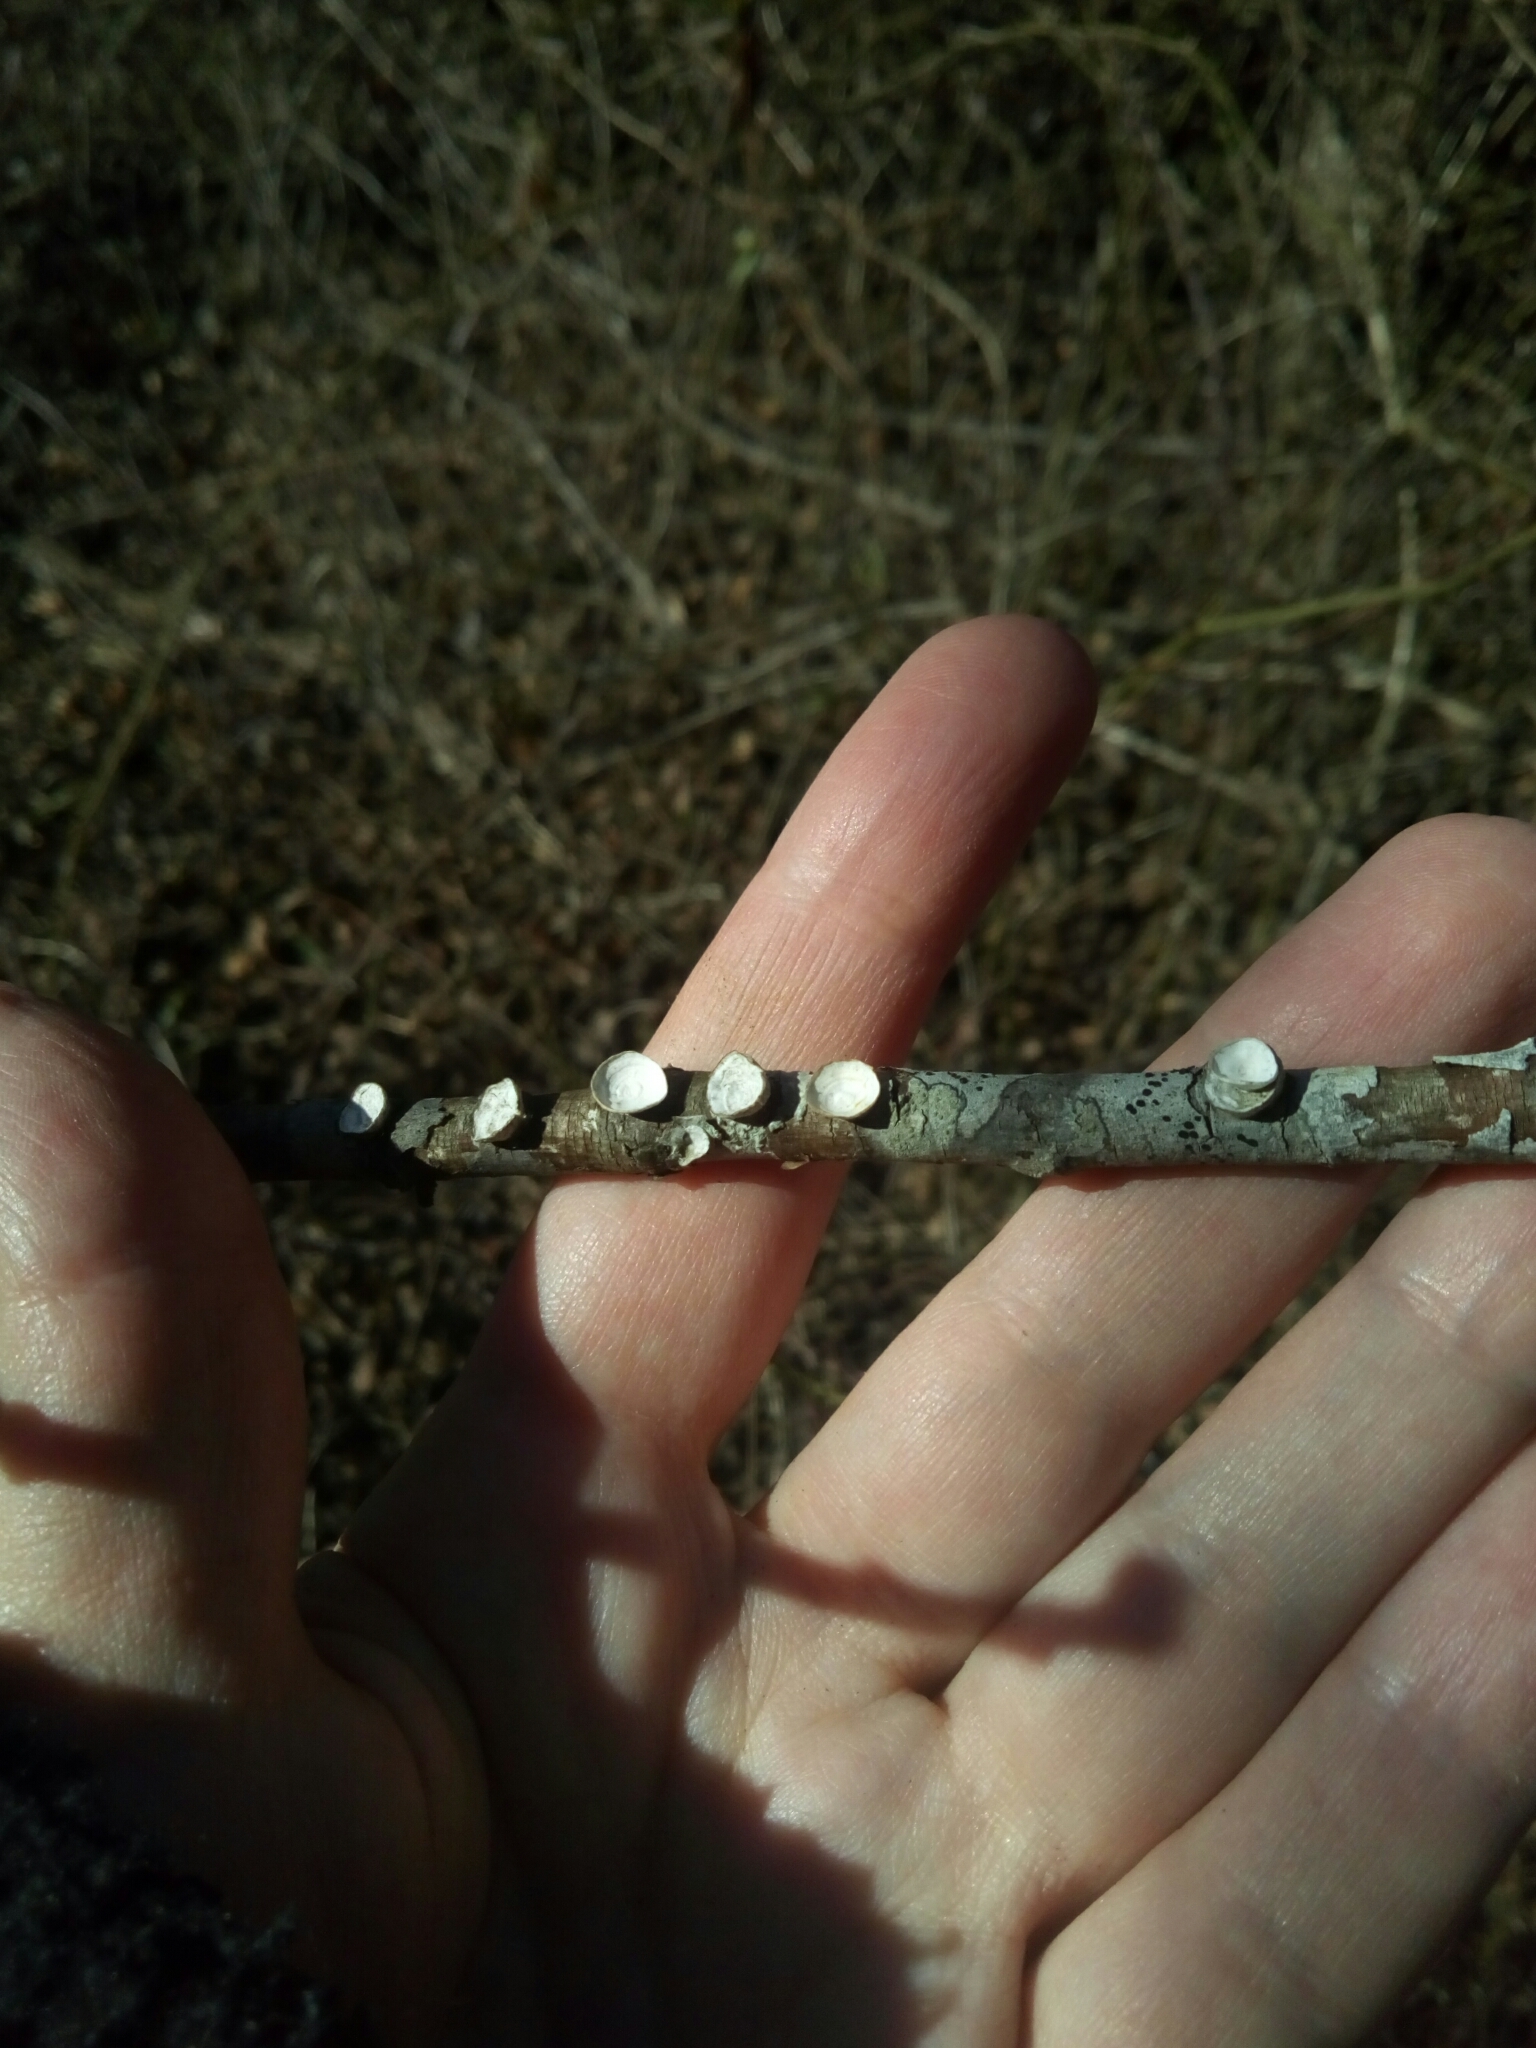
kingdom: Fungi
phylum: Basidiomycota
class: Agaricomycetes
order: Polyporales
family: Polyporaceae
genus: Poronidulus
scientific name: Poronidulus conchifer
